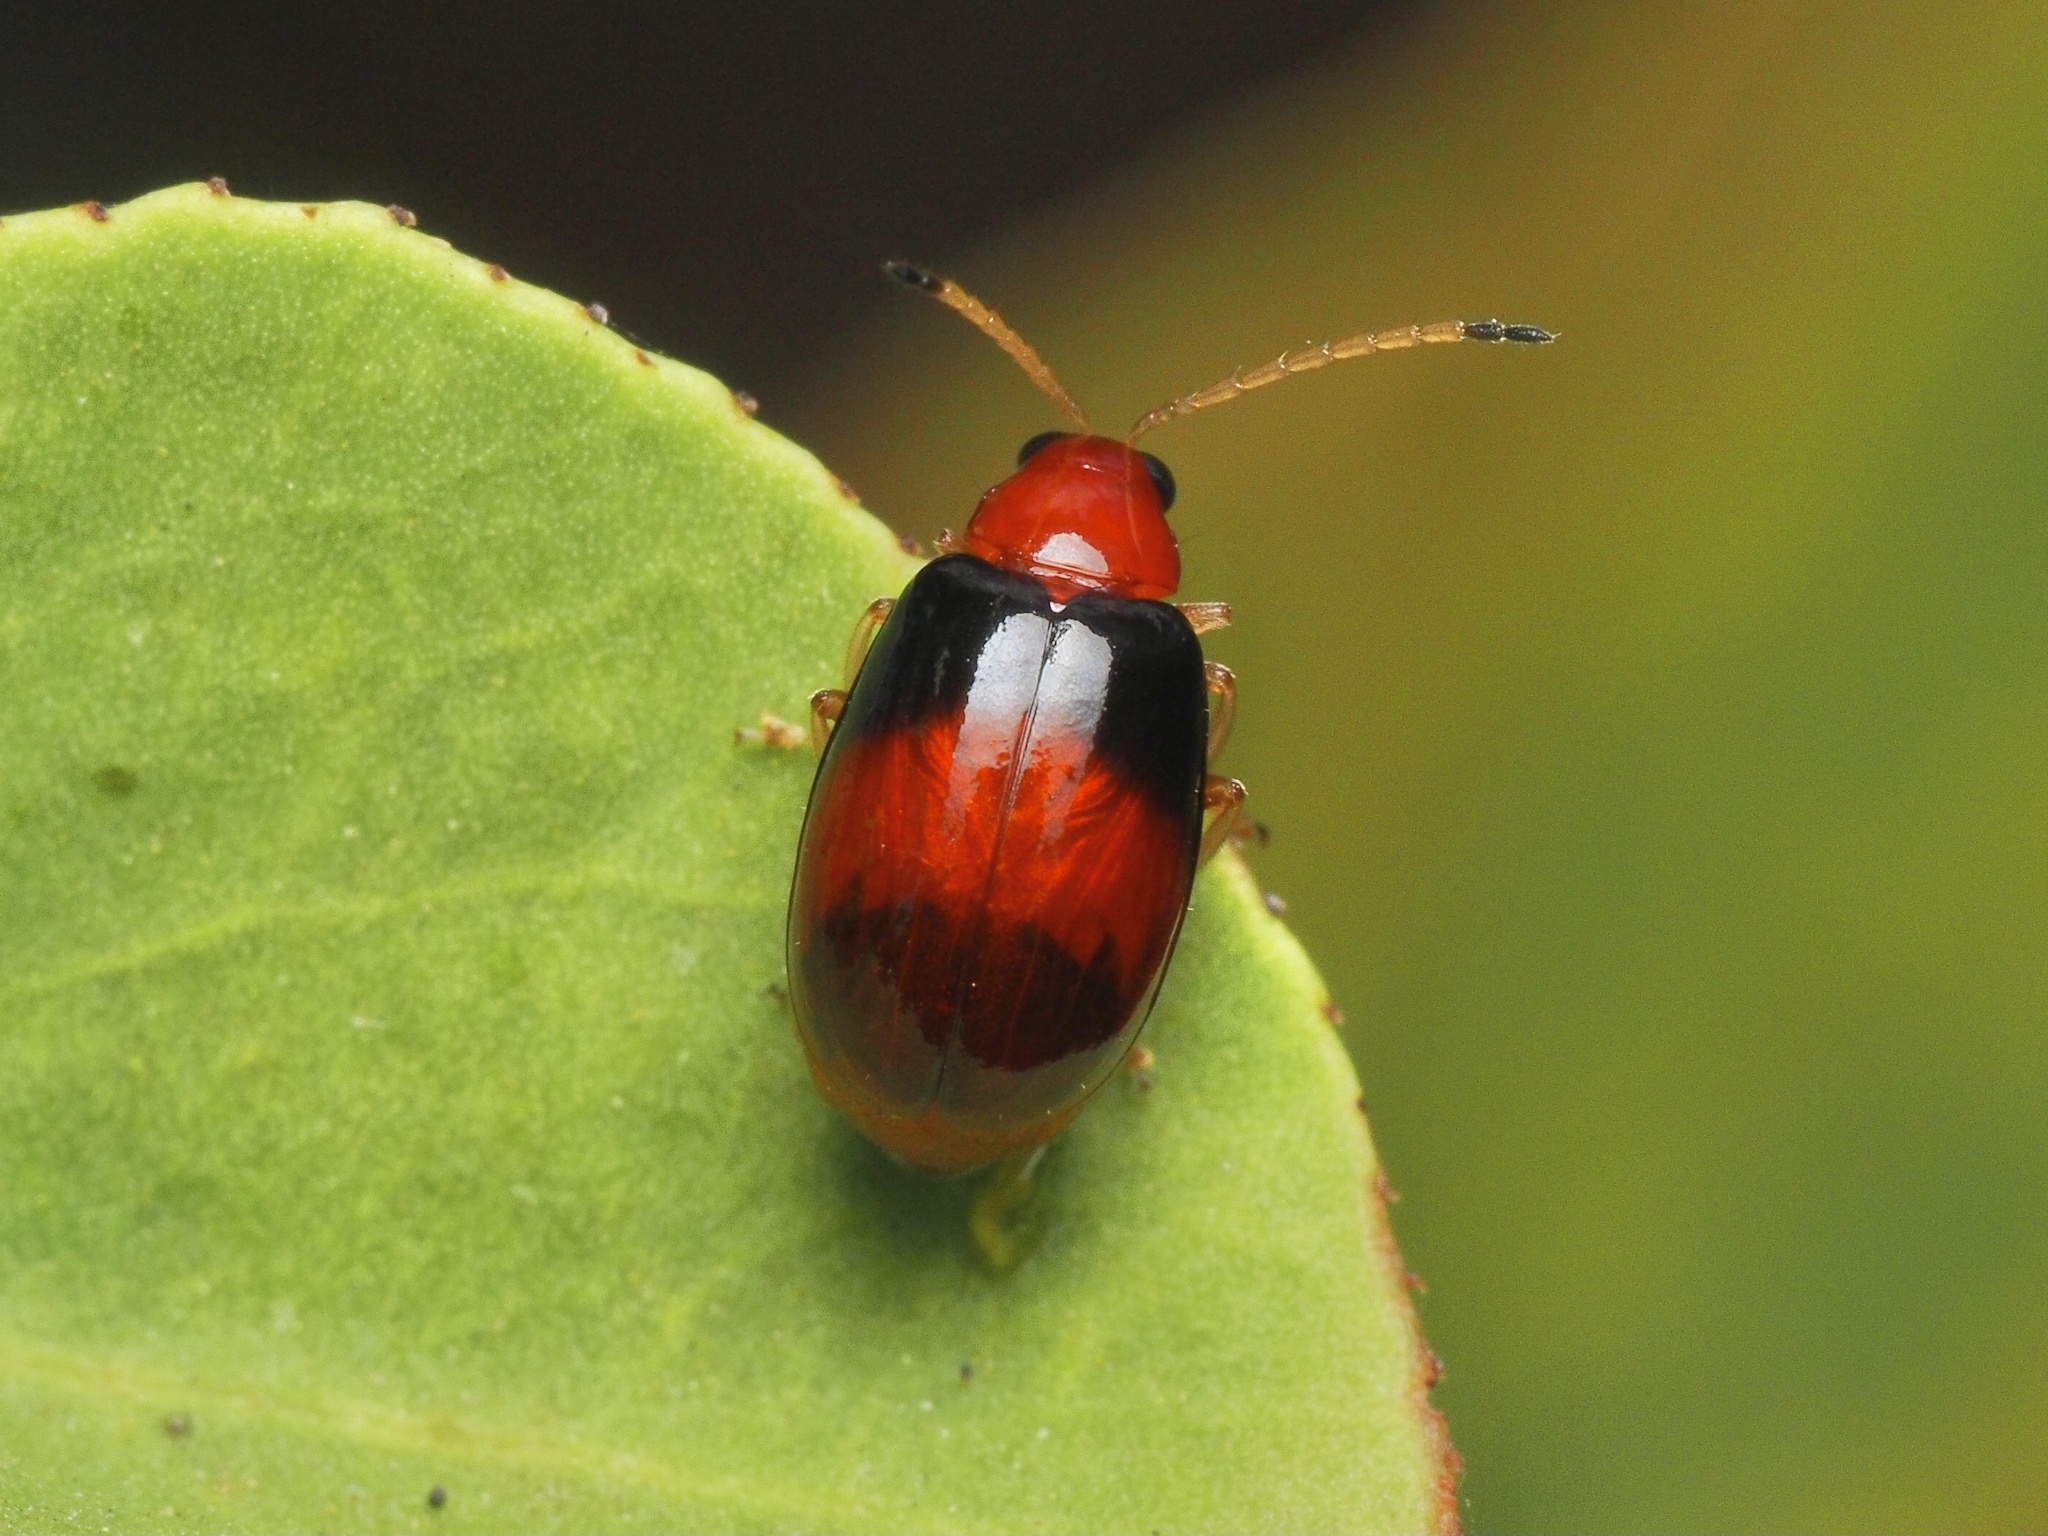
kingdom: Animalia
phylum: Arthropoda
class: Insecta
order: Coleoptera
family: Chrysomelidae
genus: Monolepta
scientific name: Monolepta
